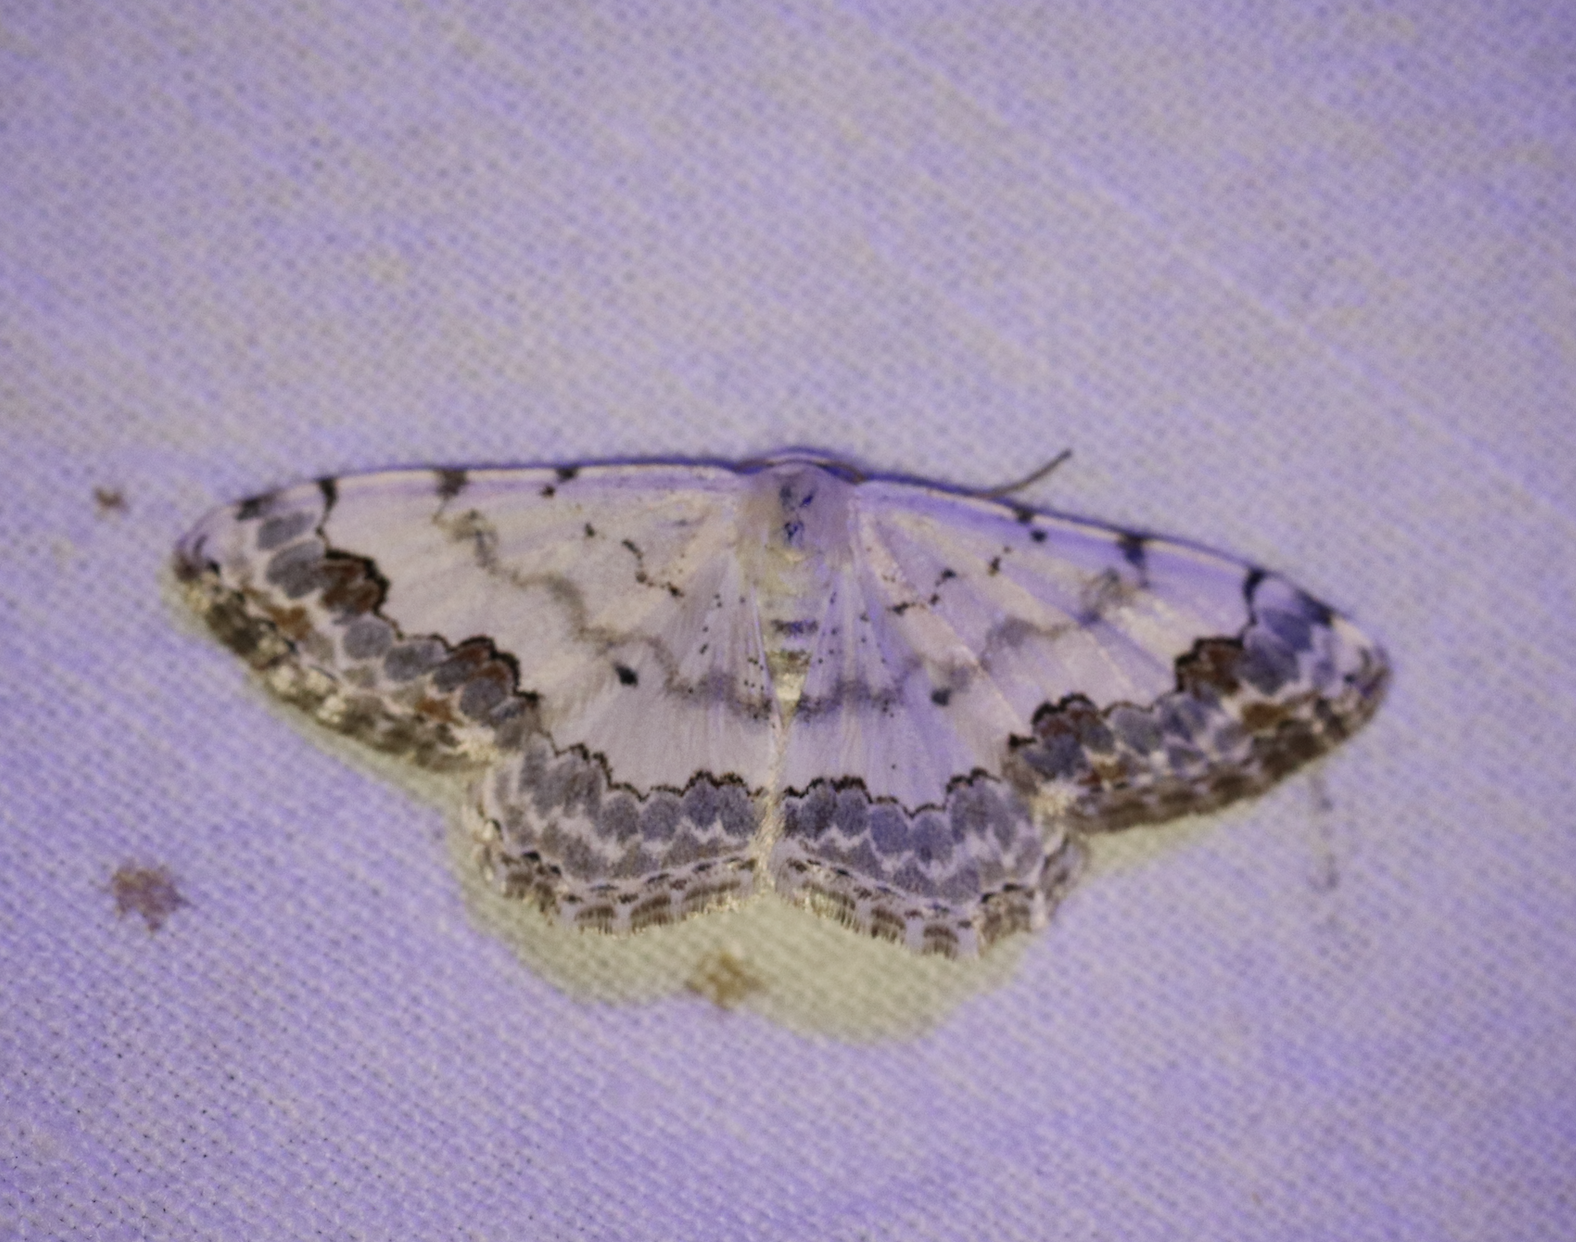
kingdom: Animalia
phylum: Arthropoda
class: Insecta
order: Lepidoptera
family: Geometridae
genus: Scopula
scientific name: Scopula decorata
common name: Middle lace border
